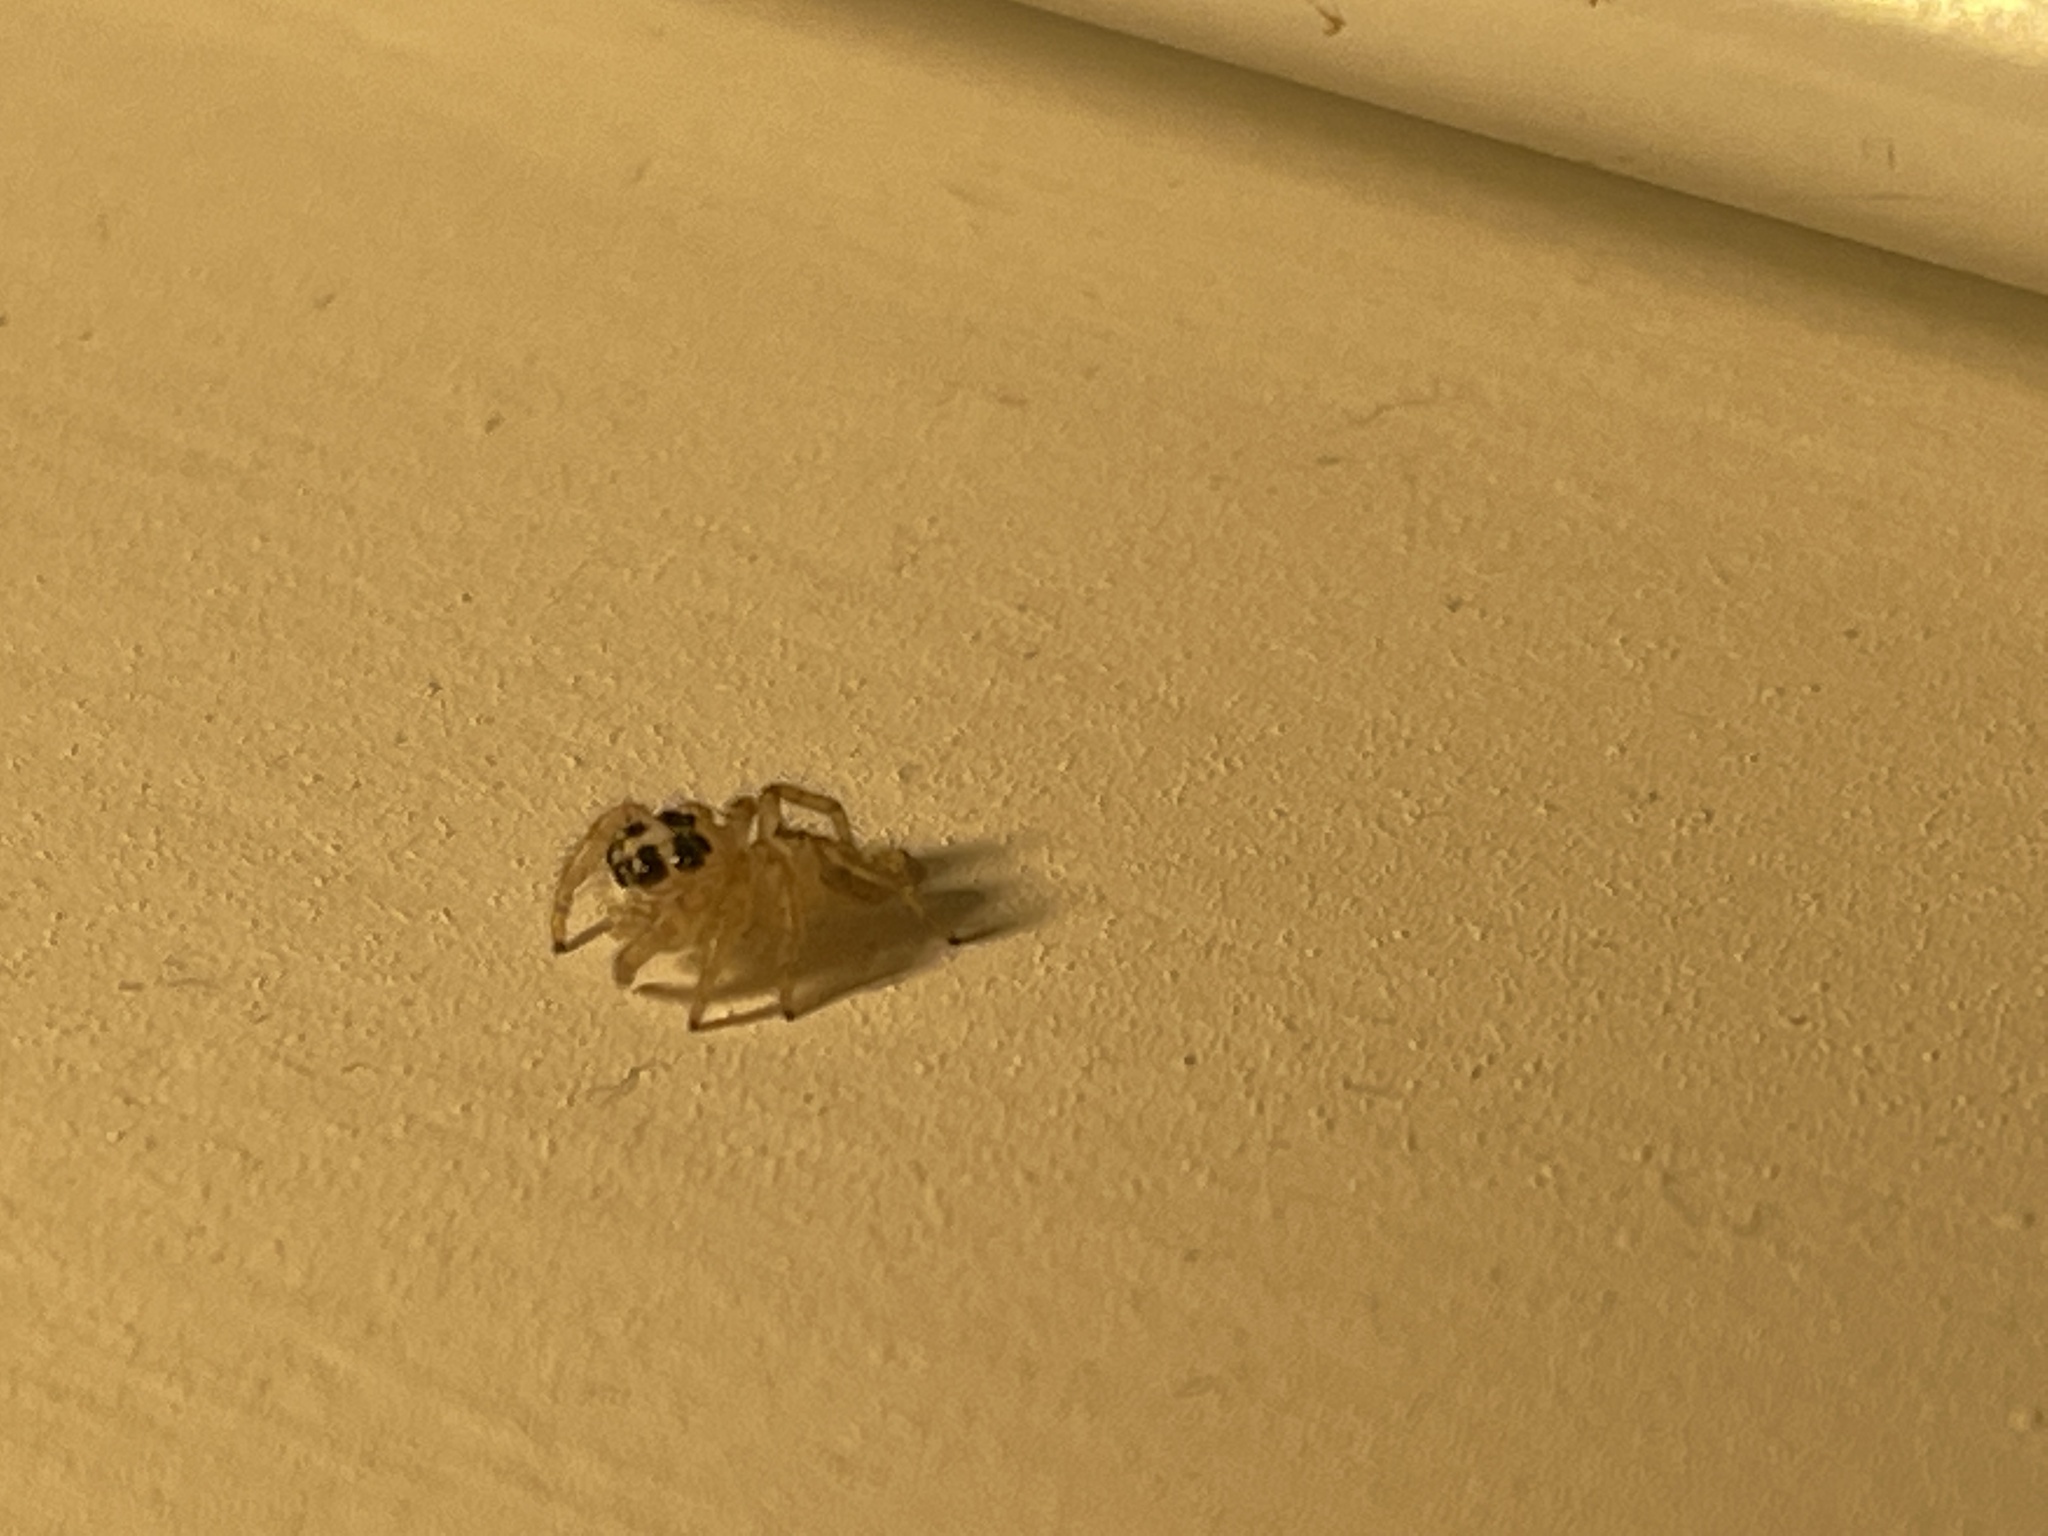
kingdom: Animalia
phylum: Arthropoda
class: Arachnida
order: Araneae
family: Salticidae
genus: Colonus
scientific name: Colonus hesperus
